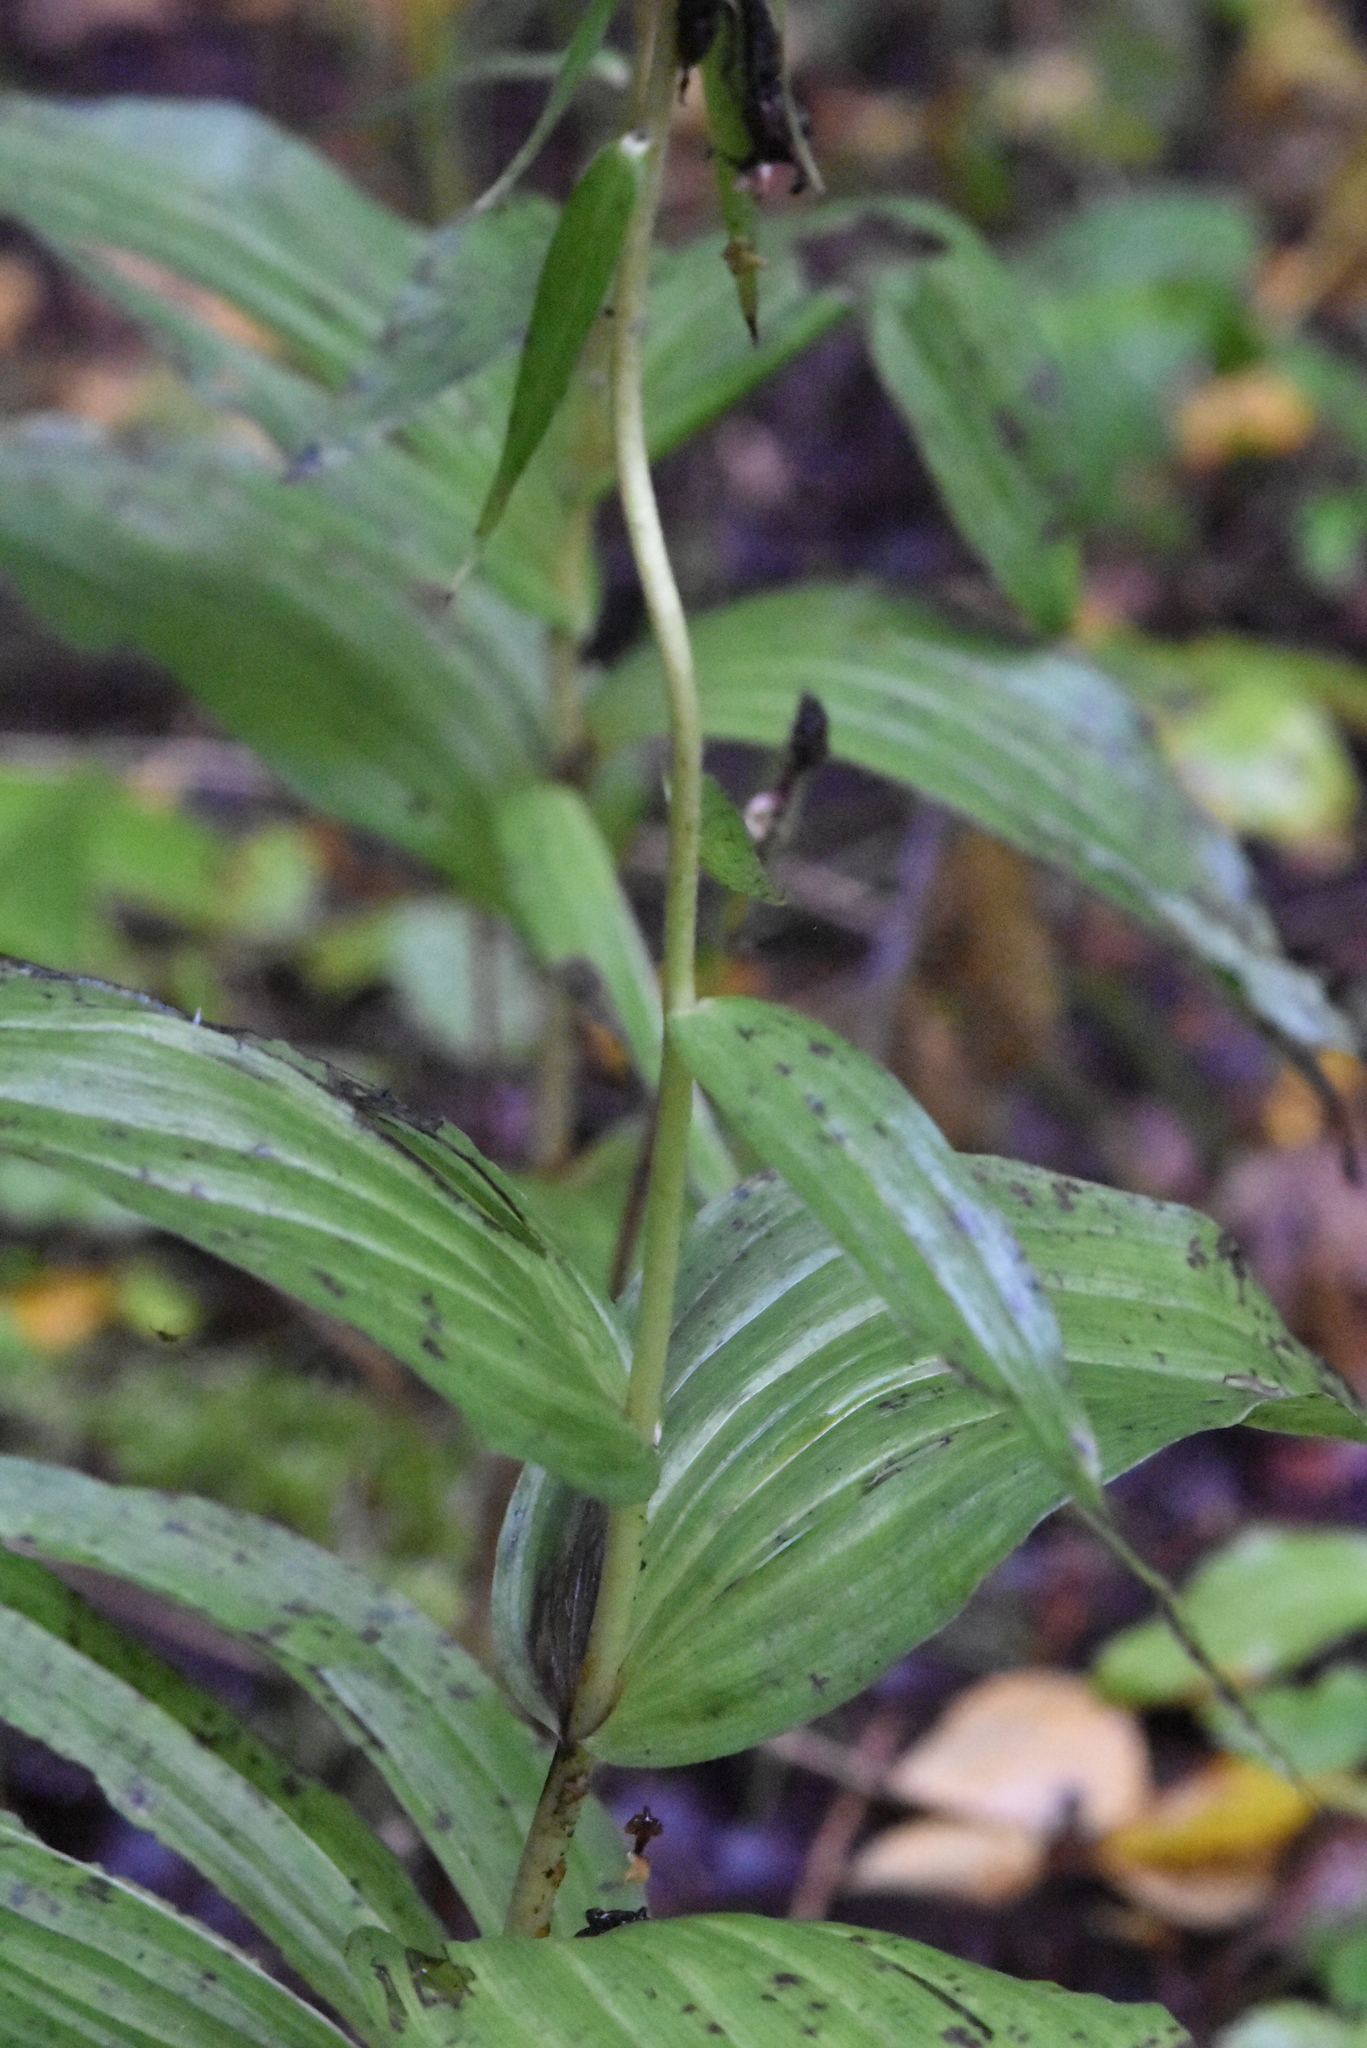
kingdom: Plantae
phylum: Tracheophyta
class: Liliopsida
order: Asparagales
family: Orchidaceae
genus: Epipactis
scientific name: Epipactis helleborine
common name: Broad-leaved helleborine
